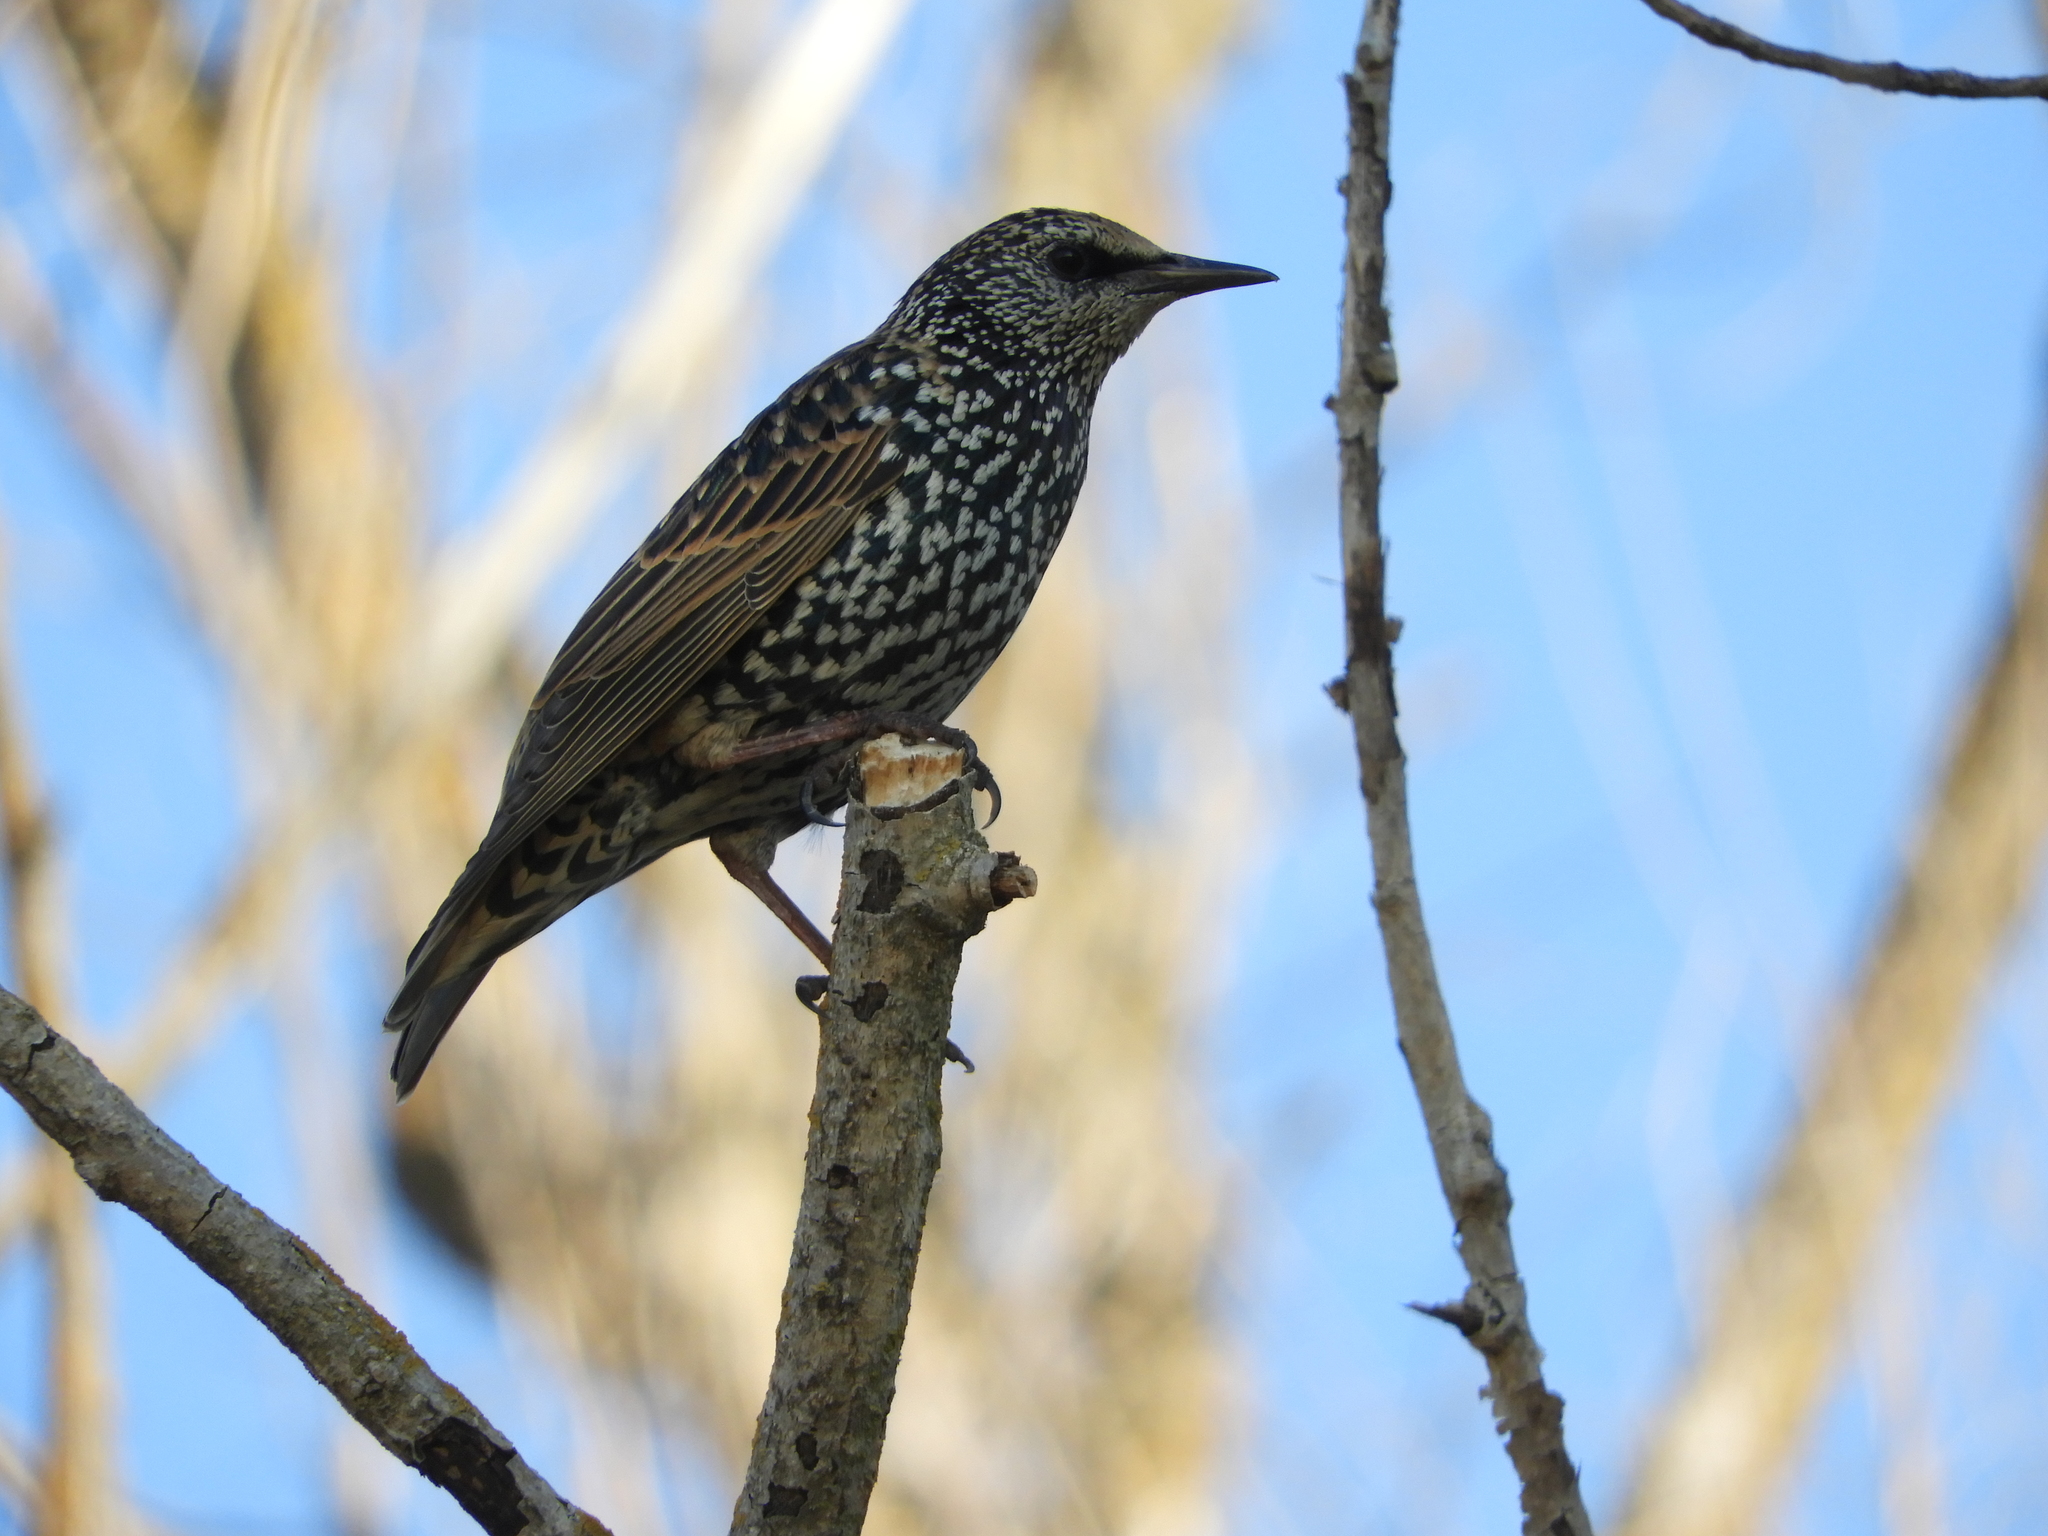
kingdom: Animalia
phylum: Chordata
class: Aves
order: Passeriformes
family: Sturnidae
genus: Sturnus
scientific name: Sturnus vulgaris
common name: Common starling
